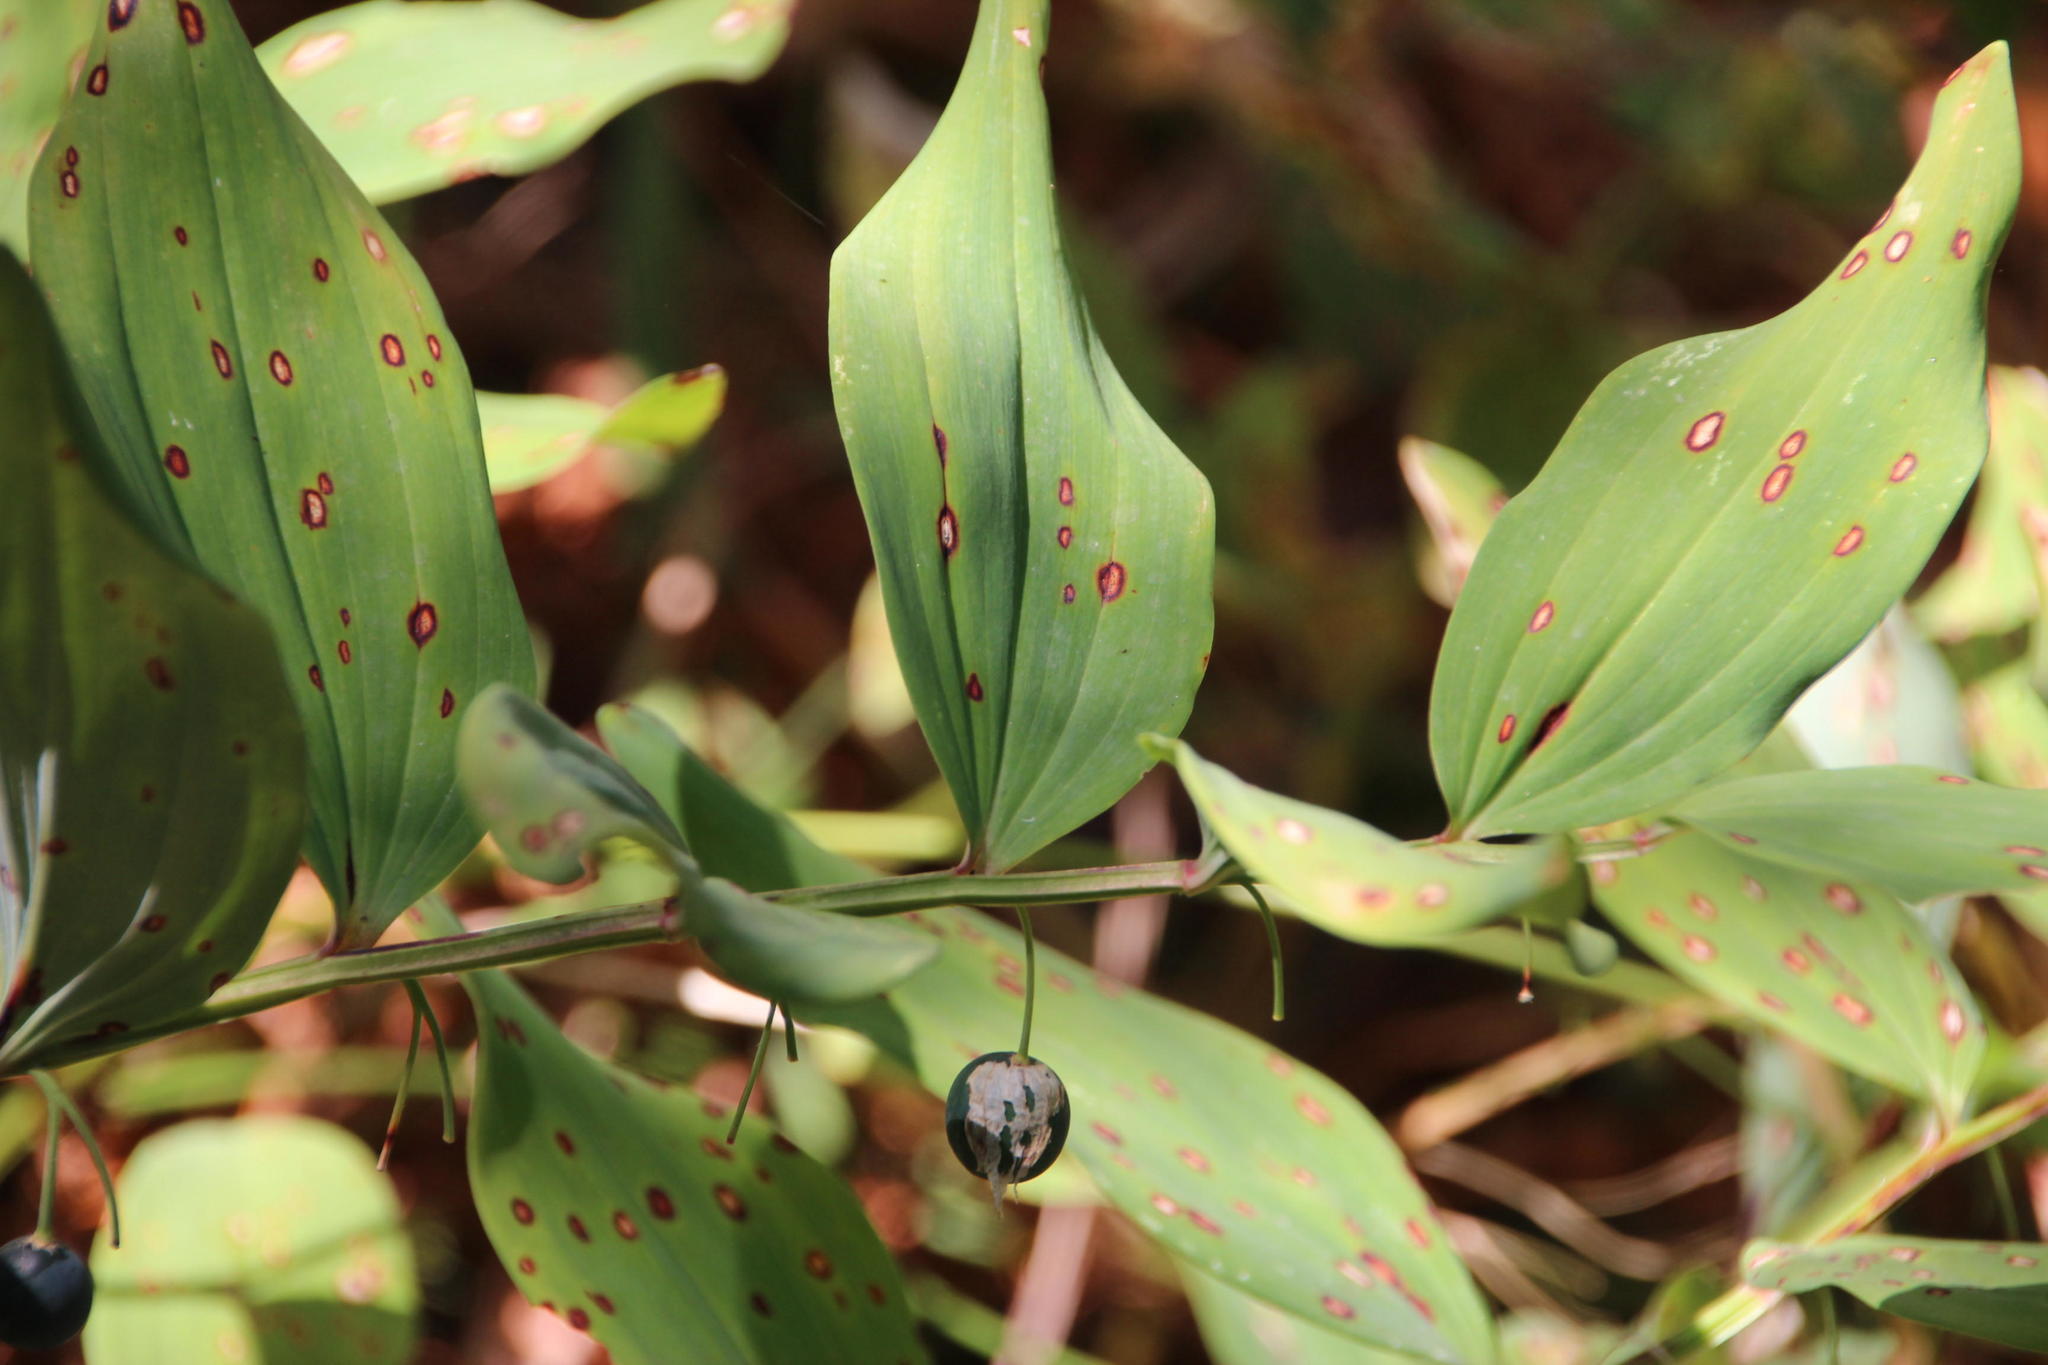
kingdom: Plantae
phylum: Tracheophyta
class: Liliopsida
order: Asparagales
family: Asparagaceae
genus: Polygonatum
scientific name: Polygonatum odoratum
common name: Angular solomon's-seal
